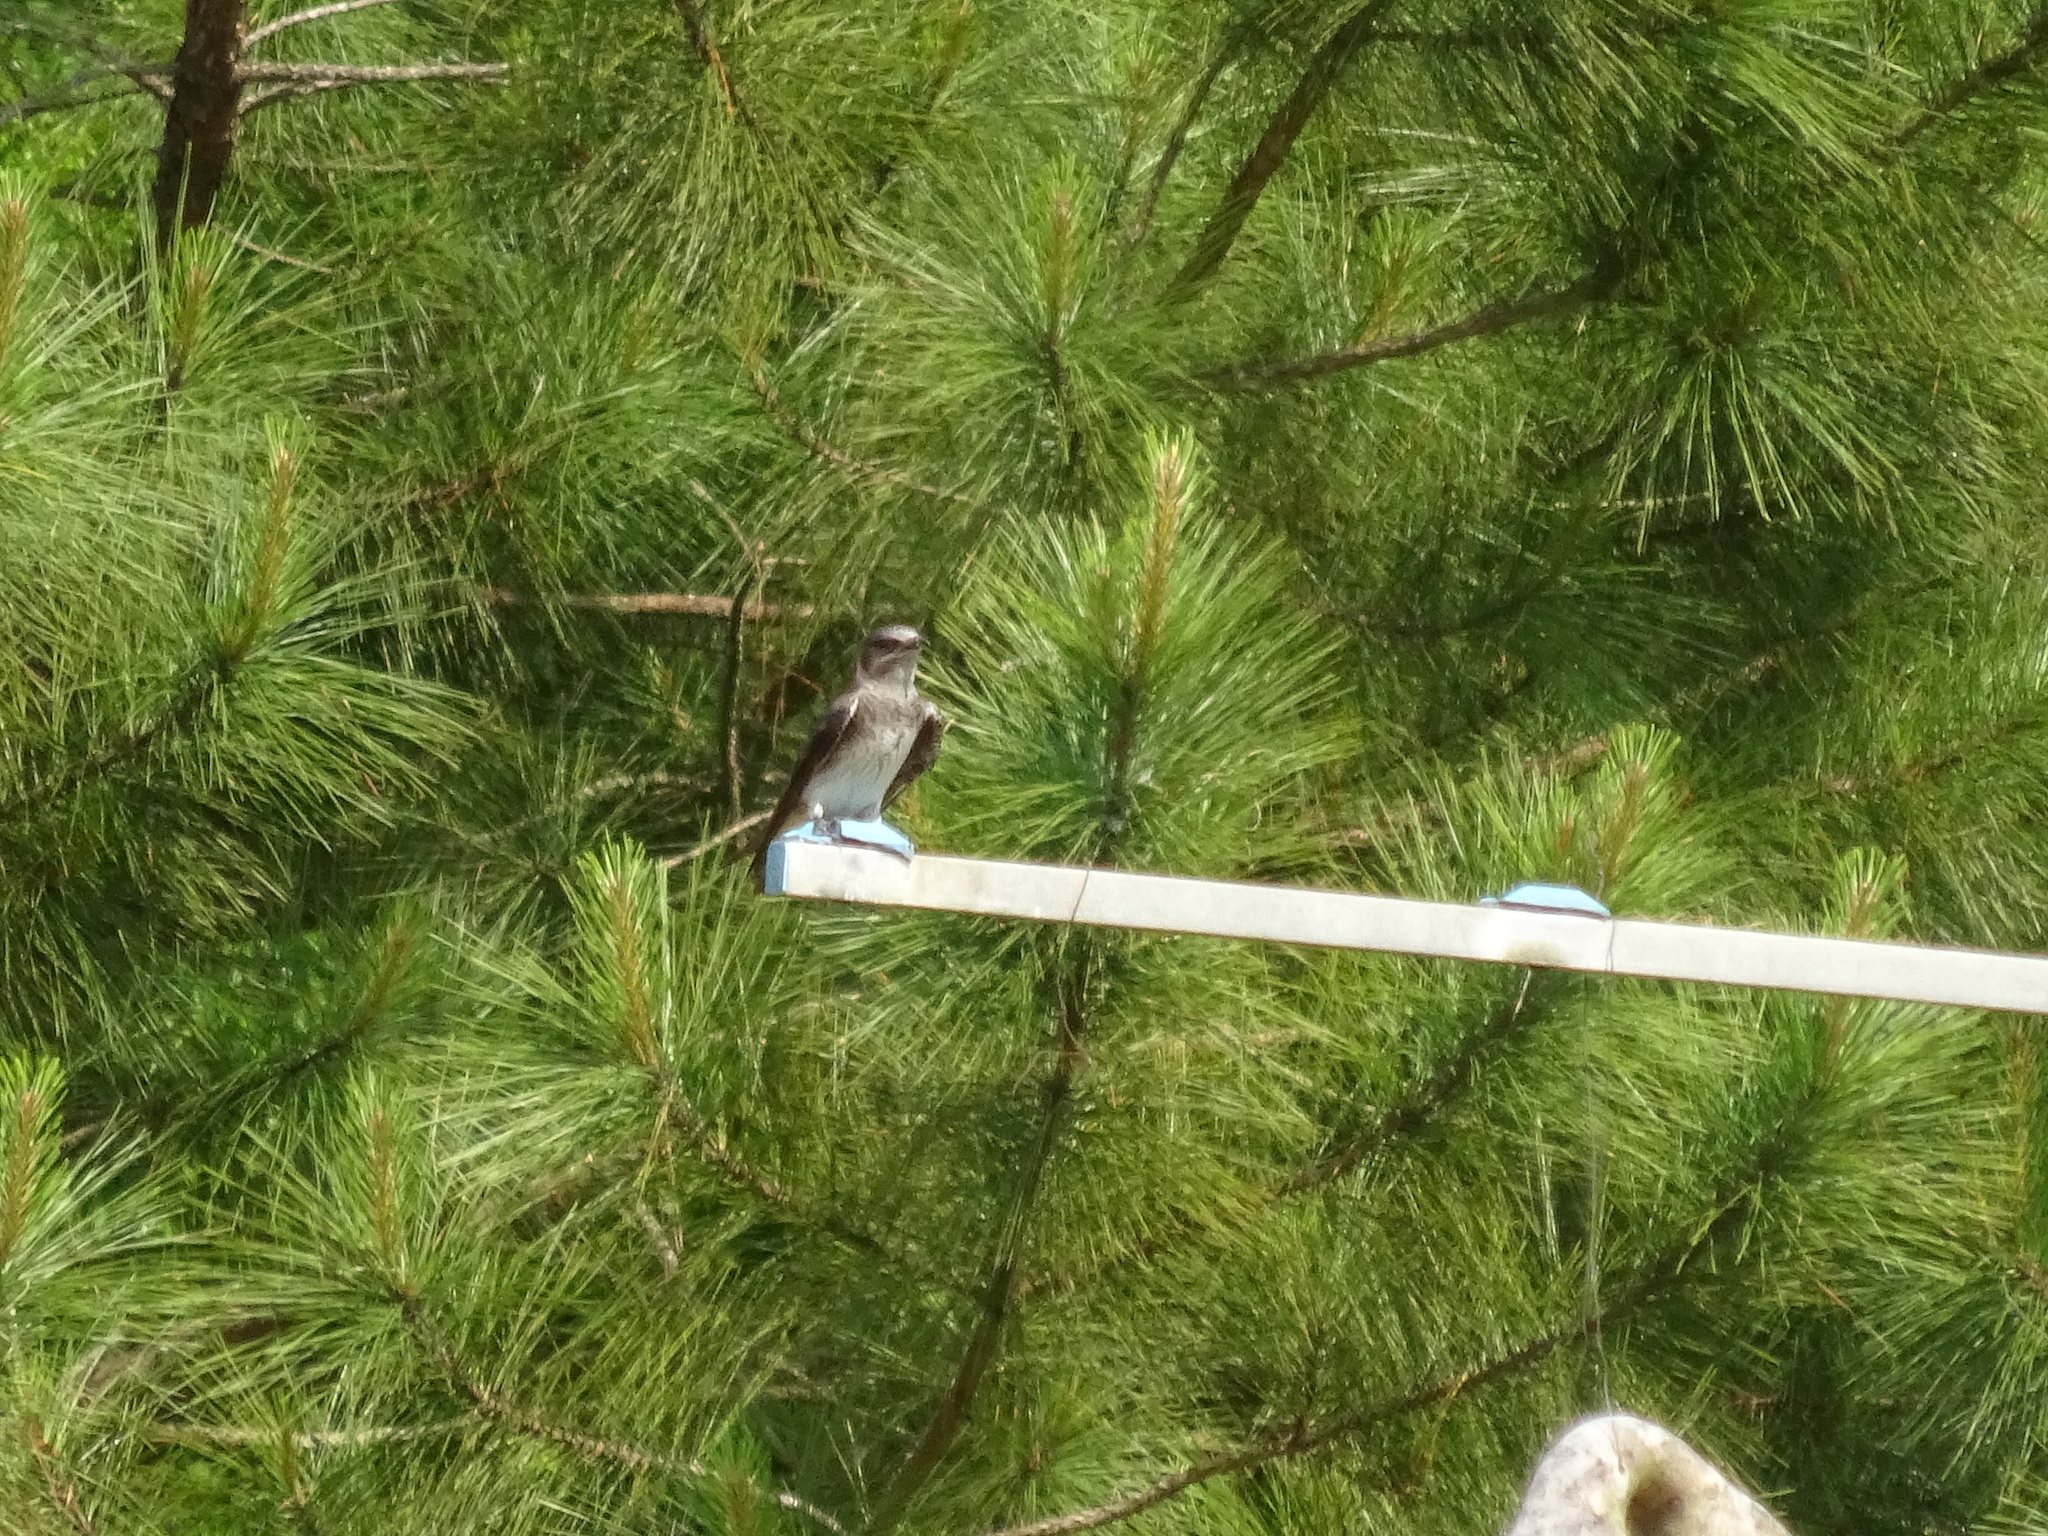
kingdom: Animalia
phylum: Chordata
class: Aves
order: Passeriformes
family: Hirundinidae
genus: Progne
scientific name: Progne subis
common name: Purple martin
